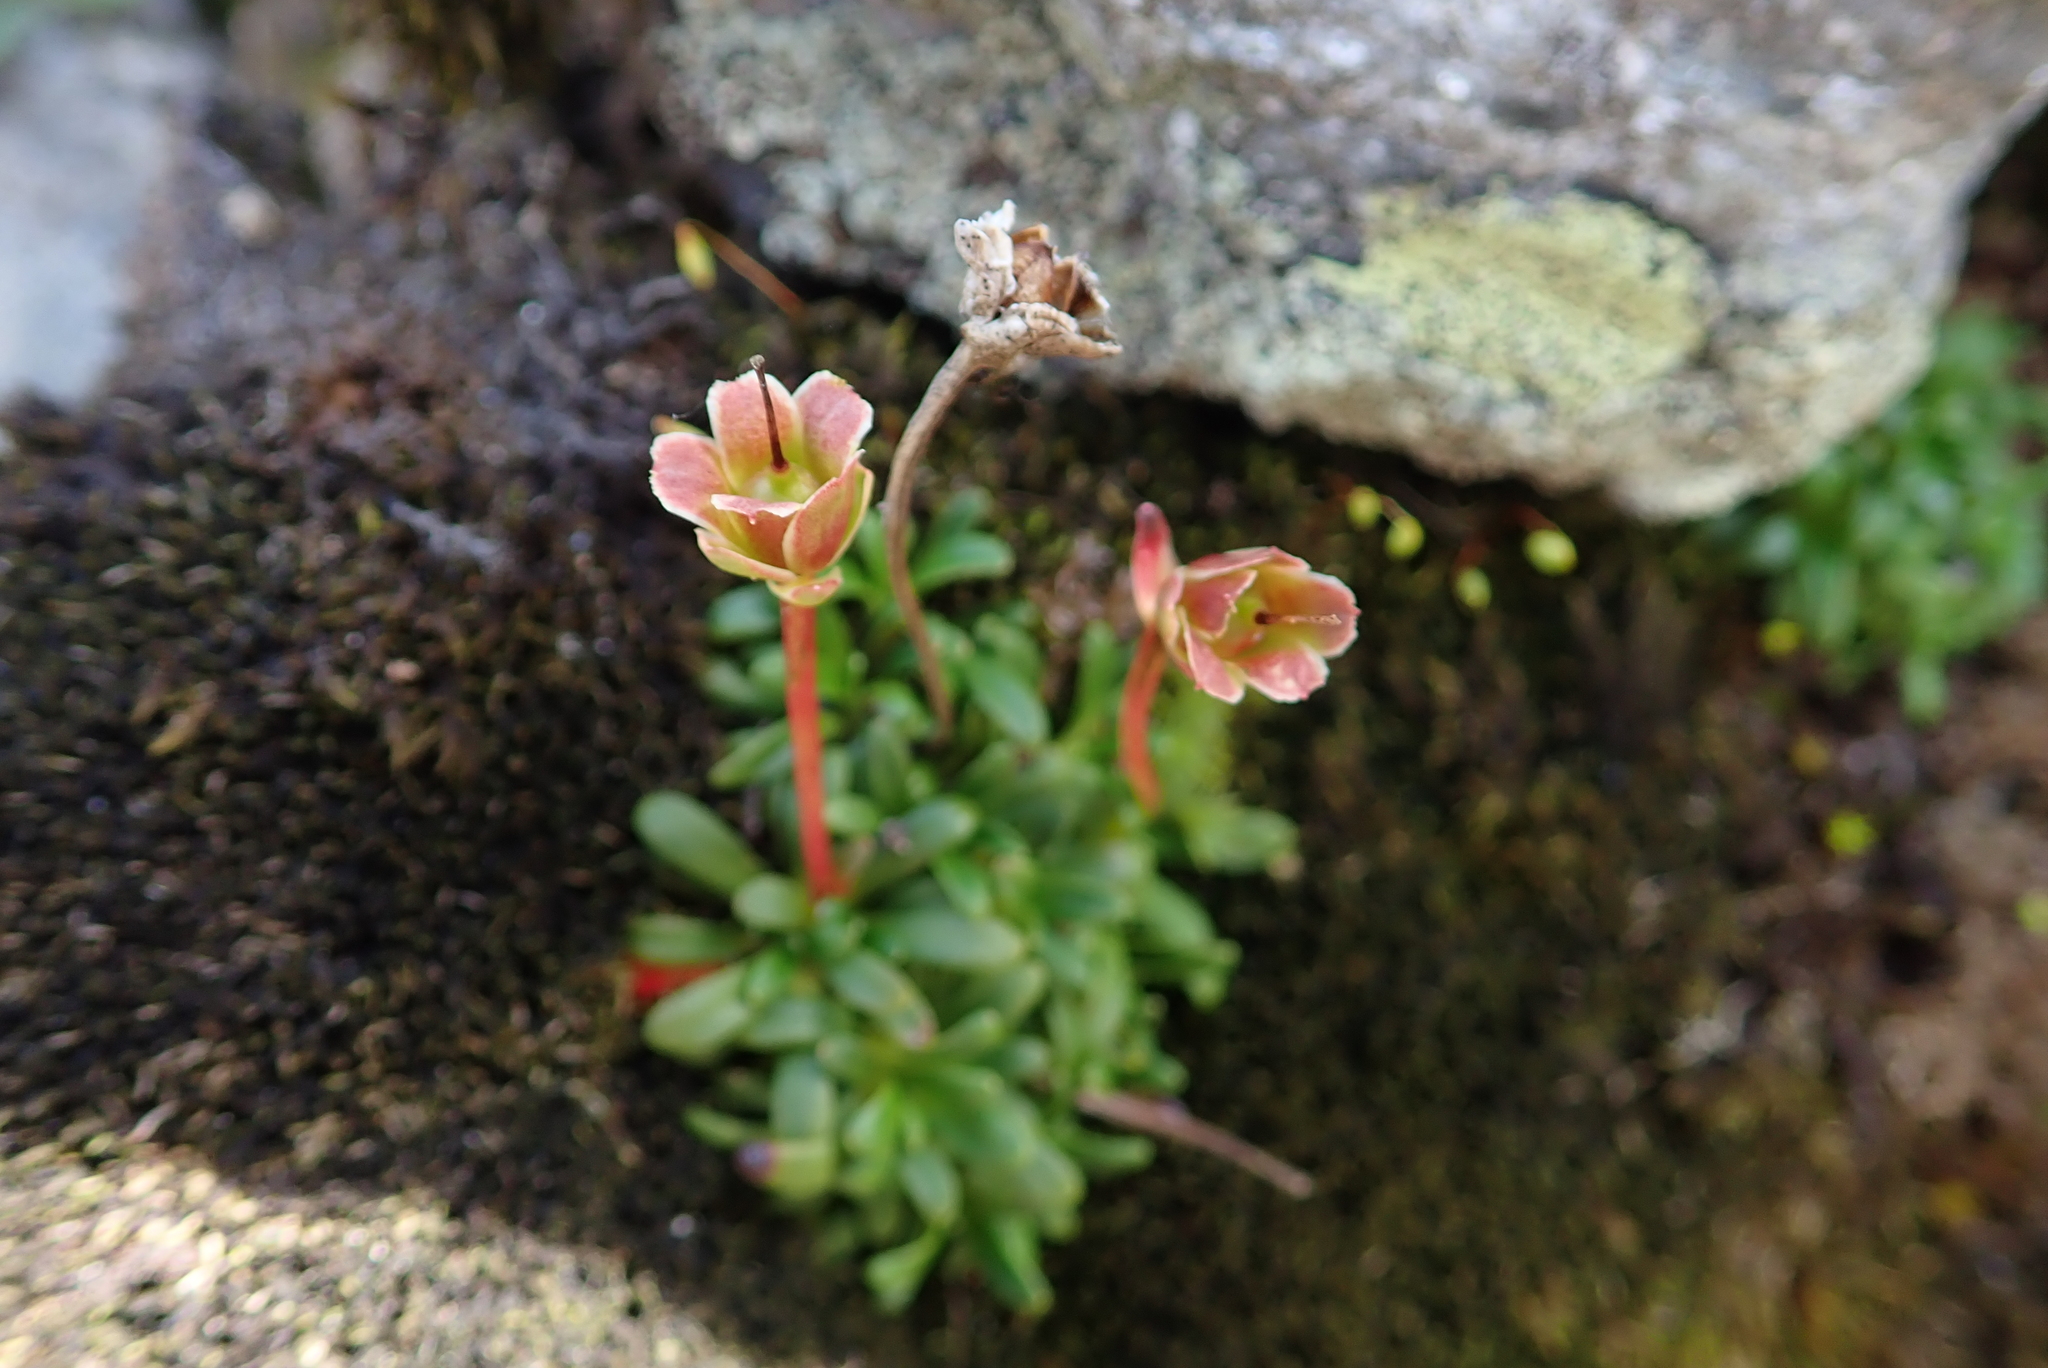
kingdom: Plantae
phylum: Tracheophyta
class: Magnoliopsida
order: Ericales
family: Diapensiaceae
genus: Diapensia
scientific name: Diapensia lapponica
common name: Diapensia
